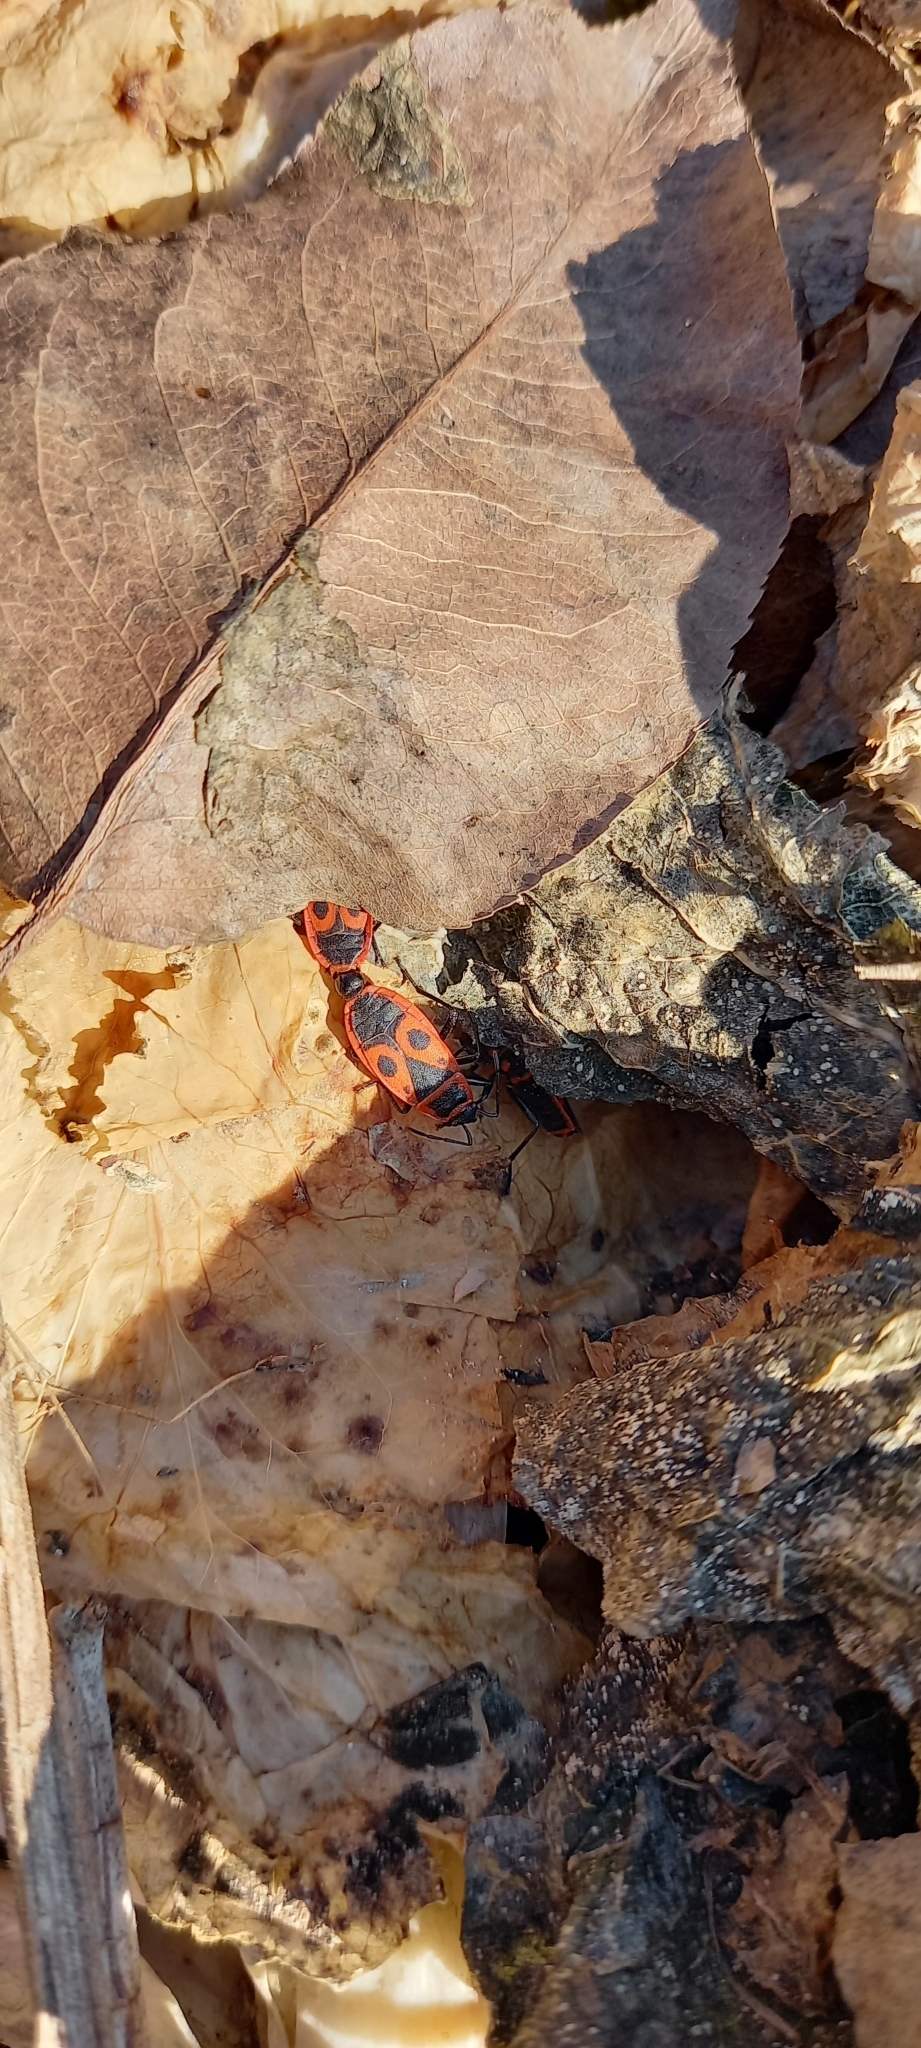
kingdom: Animalia
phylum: Arthropoda
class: Insecta
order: Hemiptera
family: Pyrrhocoridae
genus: Pyrrhocoris
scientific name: Pyrrhocoris apterus
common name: Firebug
